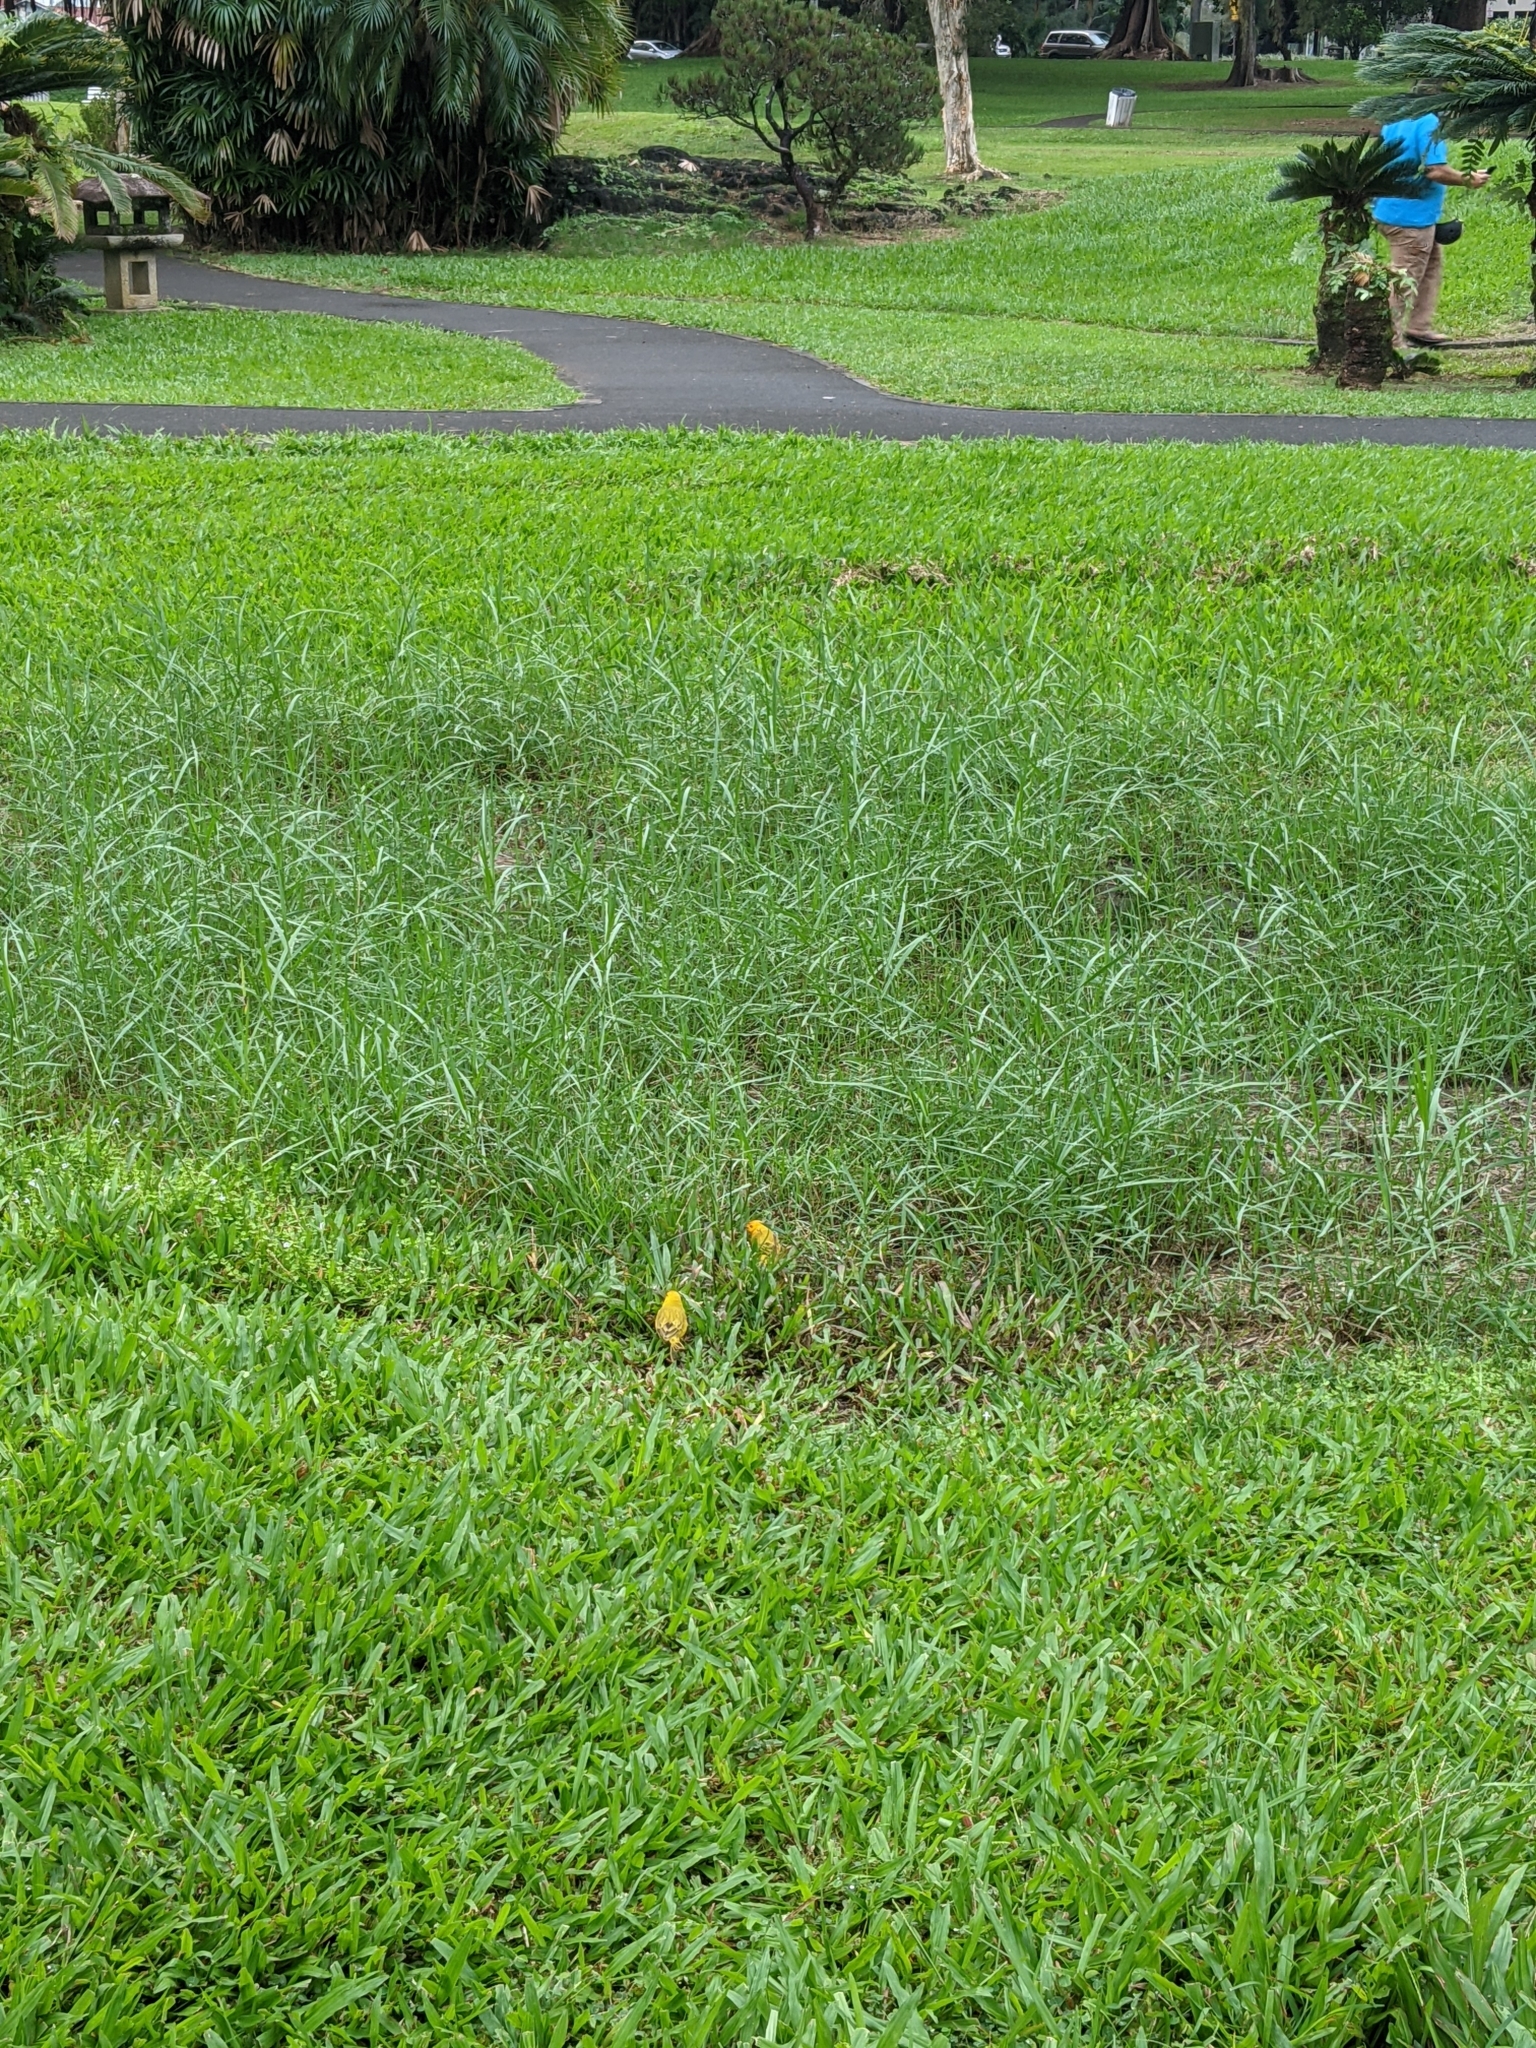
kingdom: Animalia
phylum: Chordata
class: Aves
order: Passeriformes
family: Thraupidae
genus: Sicalis
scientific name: Sicalis flaveola
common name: Saffron finch
